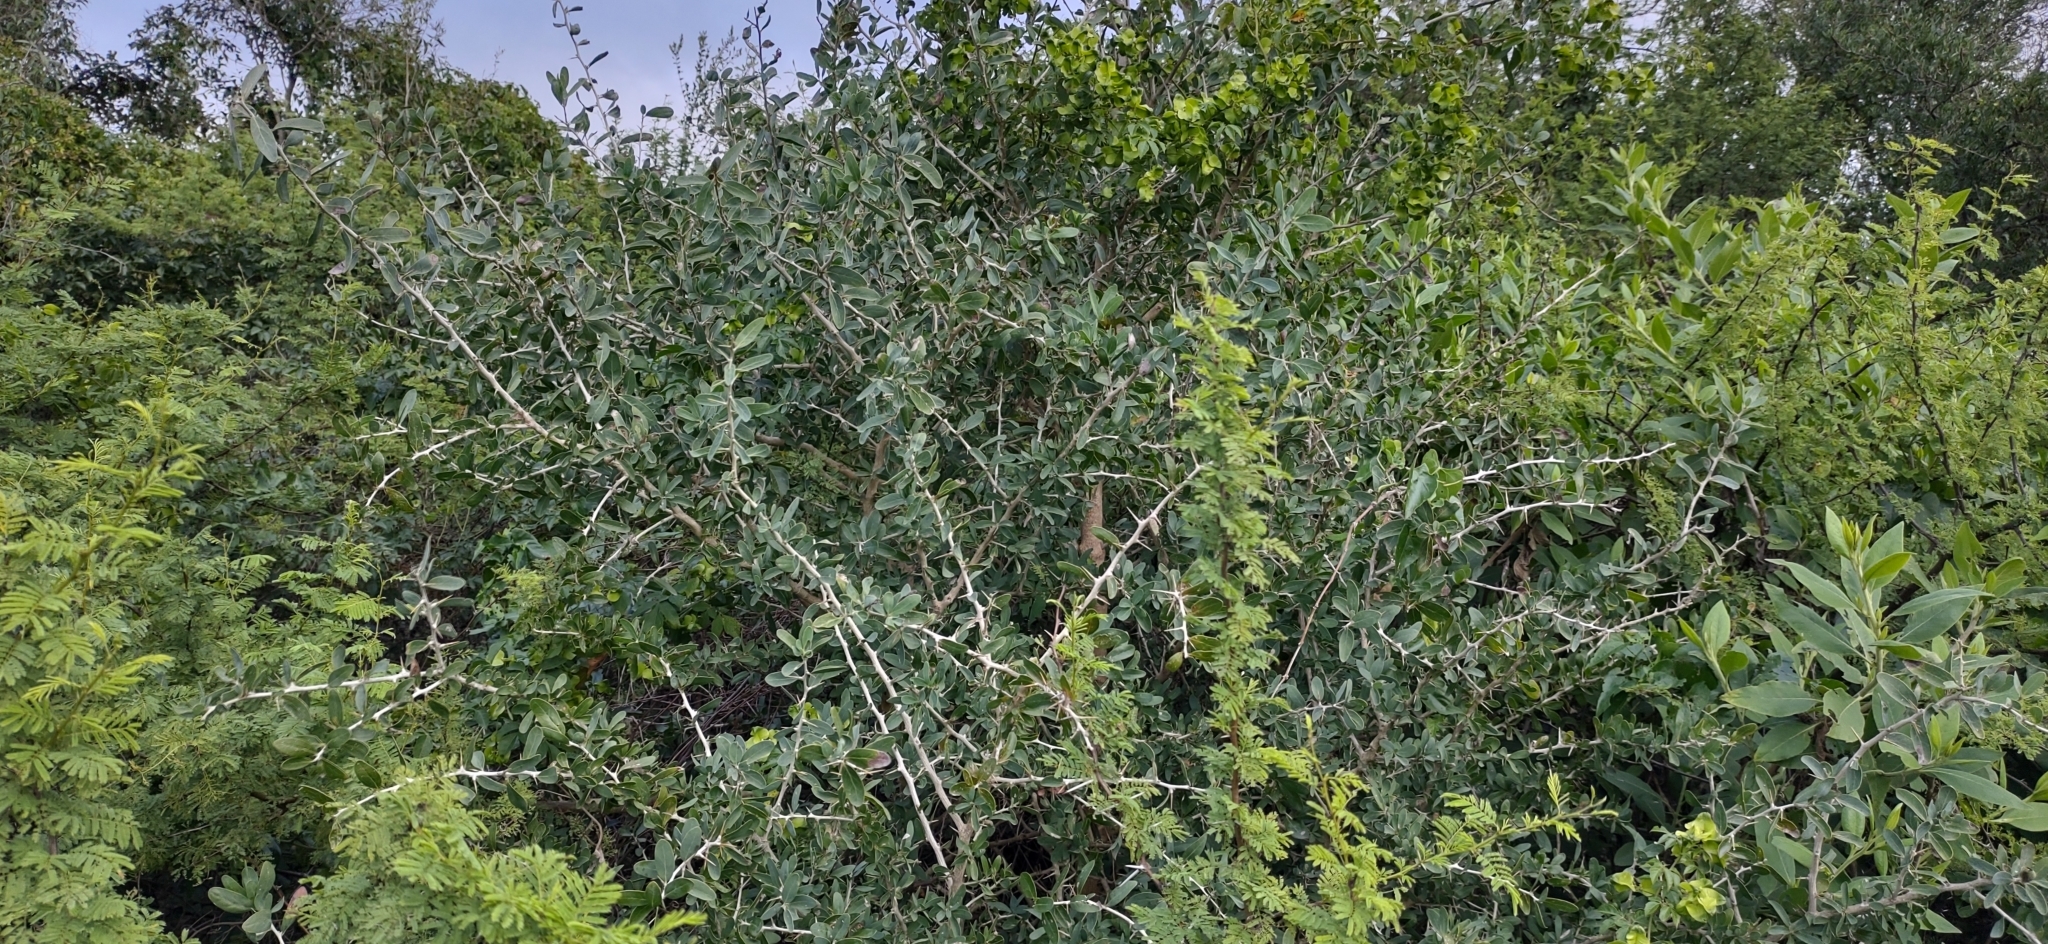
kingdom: Plantae
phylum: Tracheophyta
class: Magnoliopsida
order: Santalales
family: Cervantesiaceae
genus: Acanthosyris
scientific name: Acanthosyris spinescens
